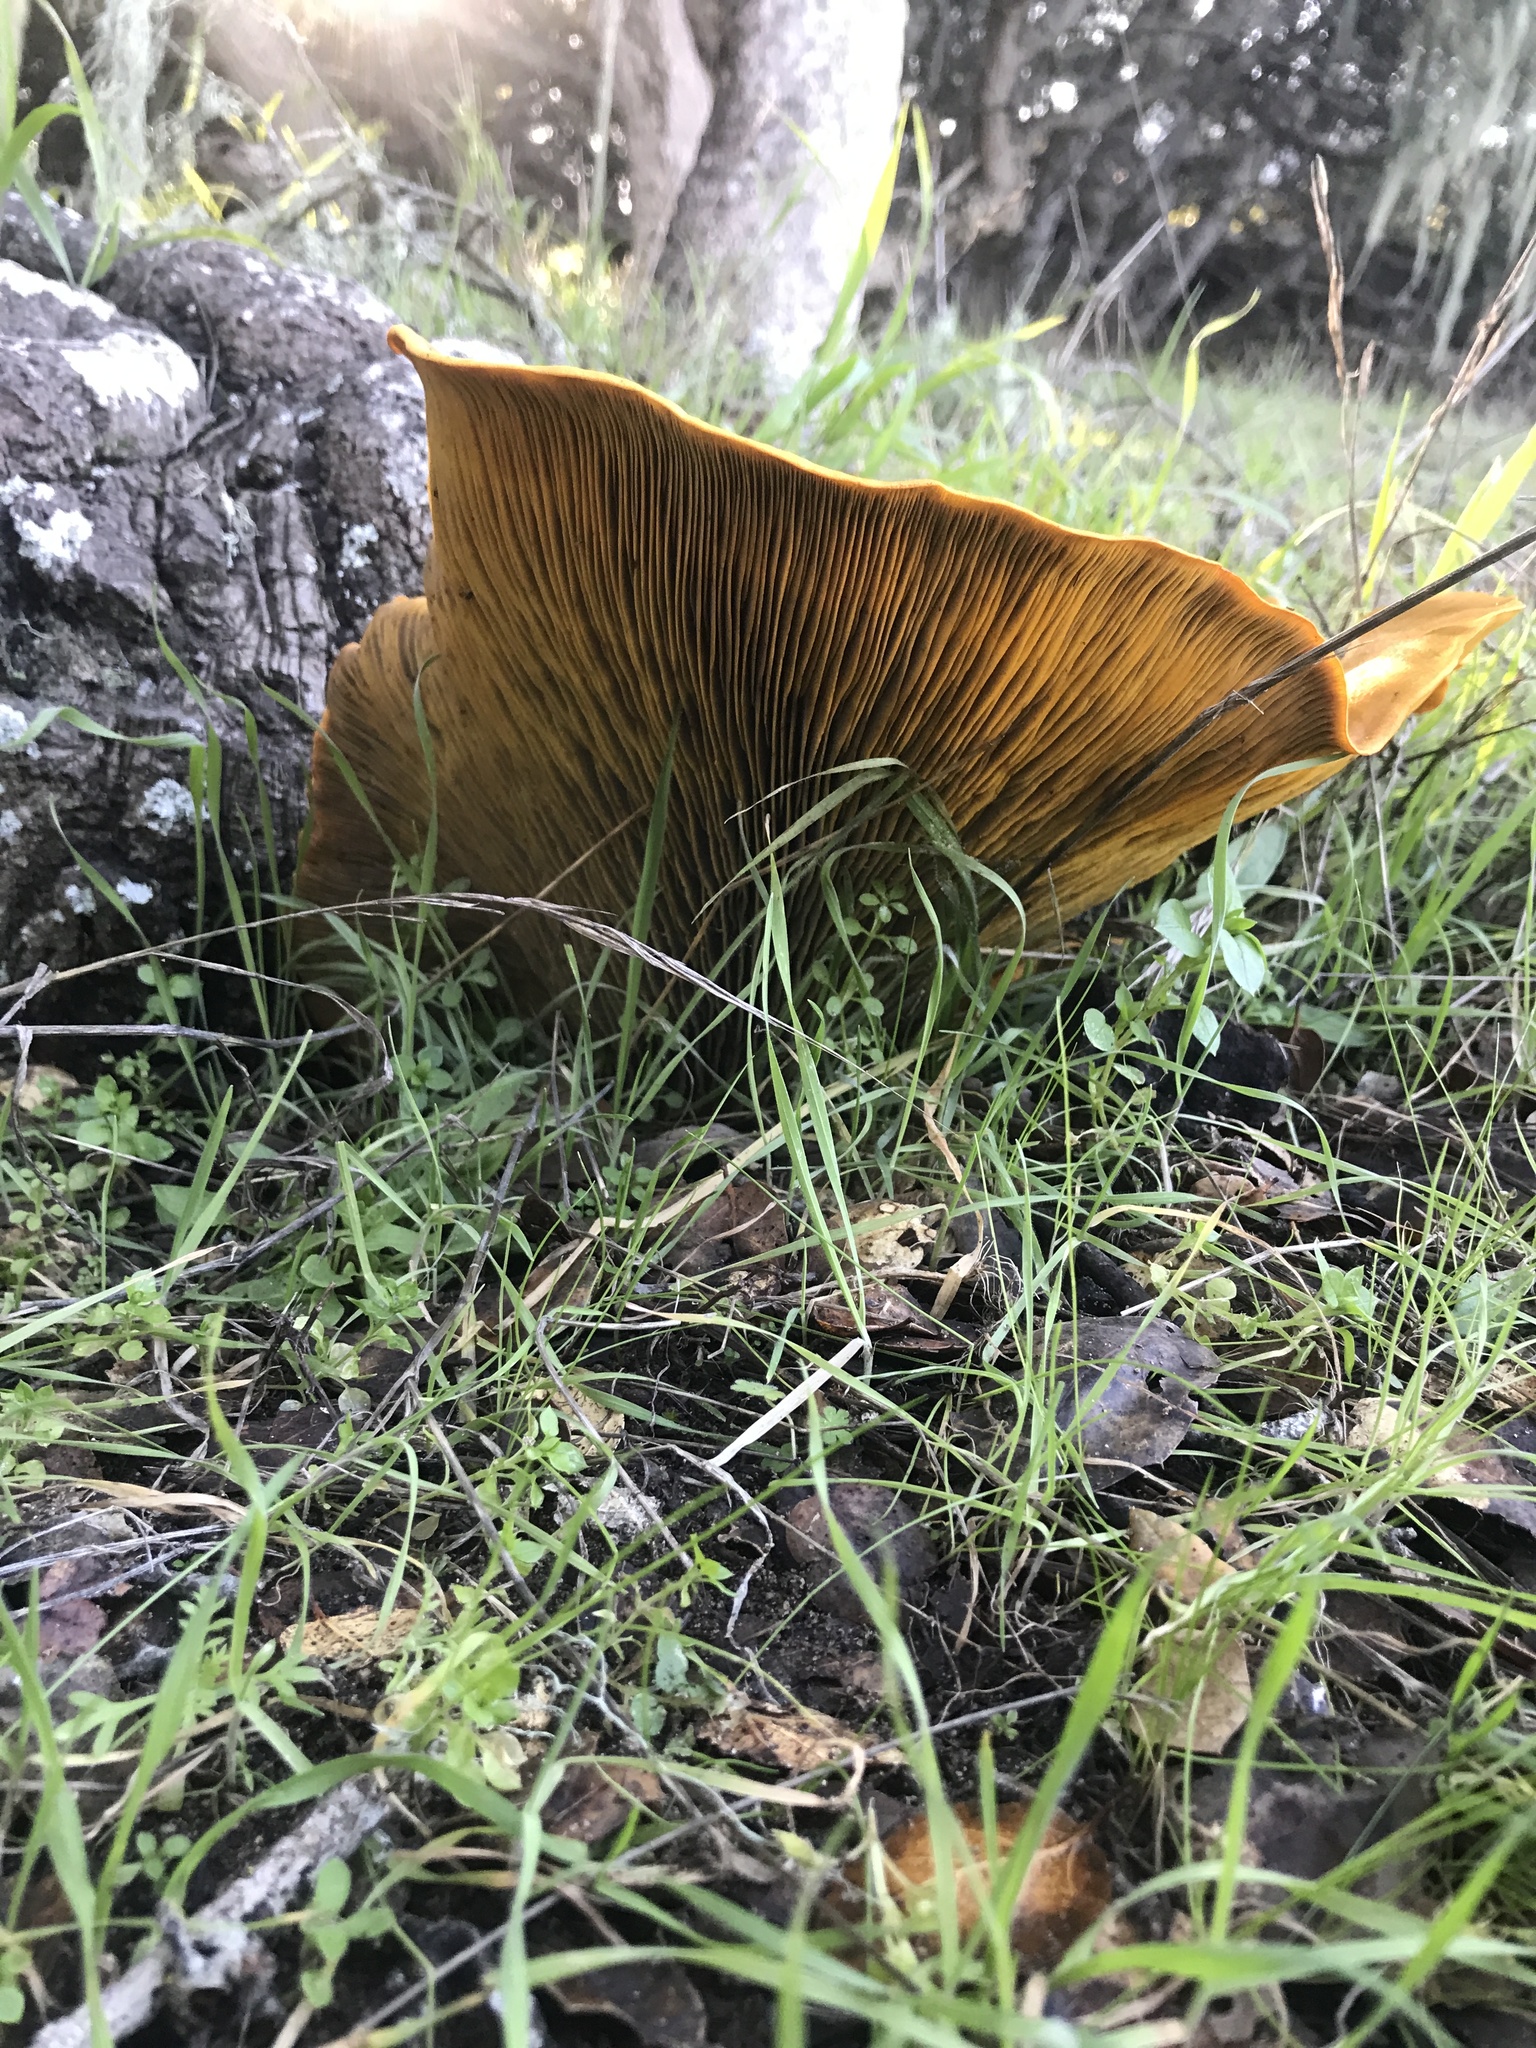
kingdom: Fungi
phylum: Basidiomycota
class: Agaricomycetes
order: Agaricales
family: Omphalotaceae
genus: Omphalotus
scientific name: Omphalotus olivascens
